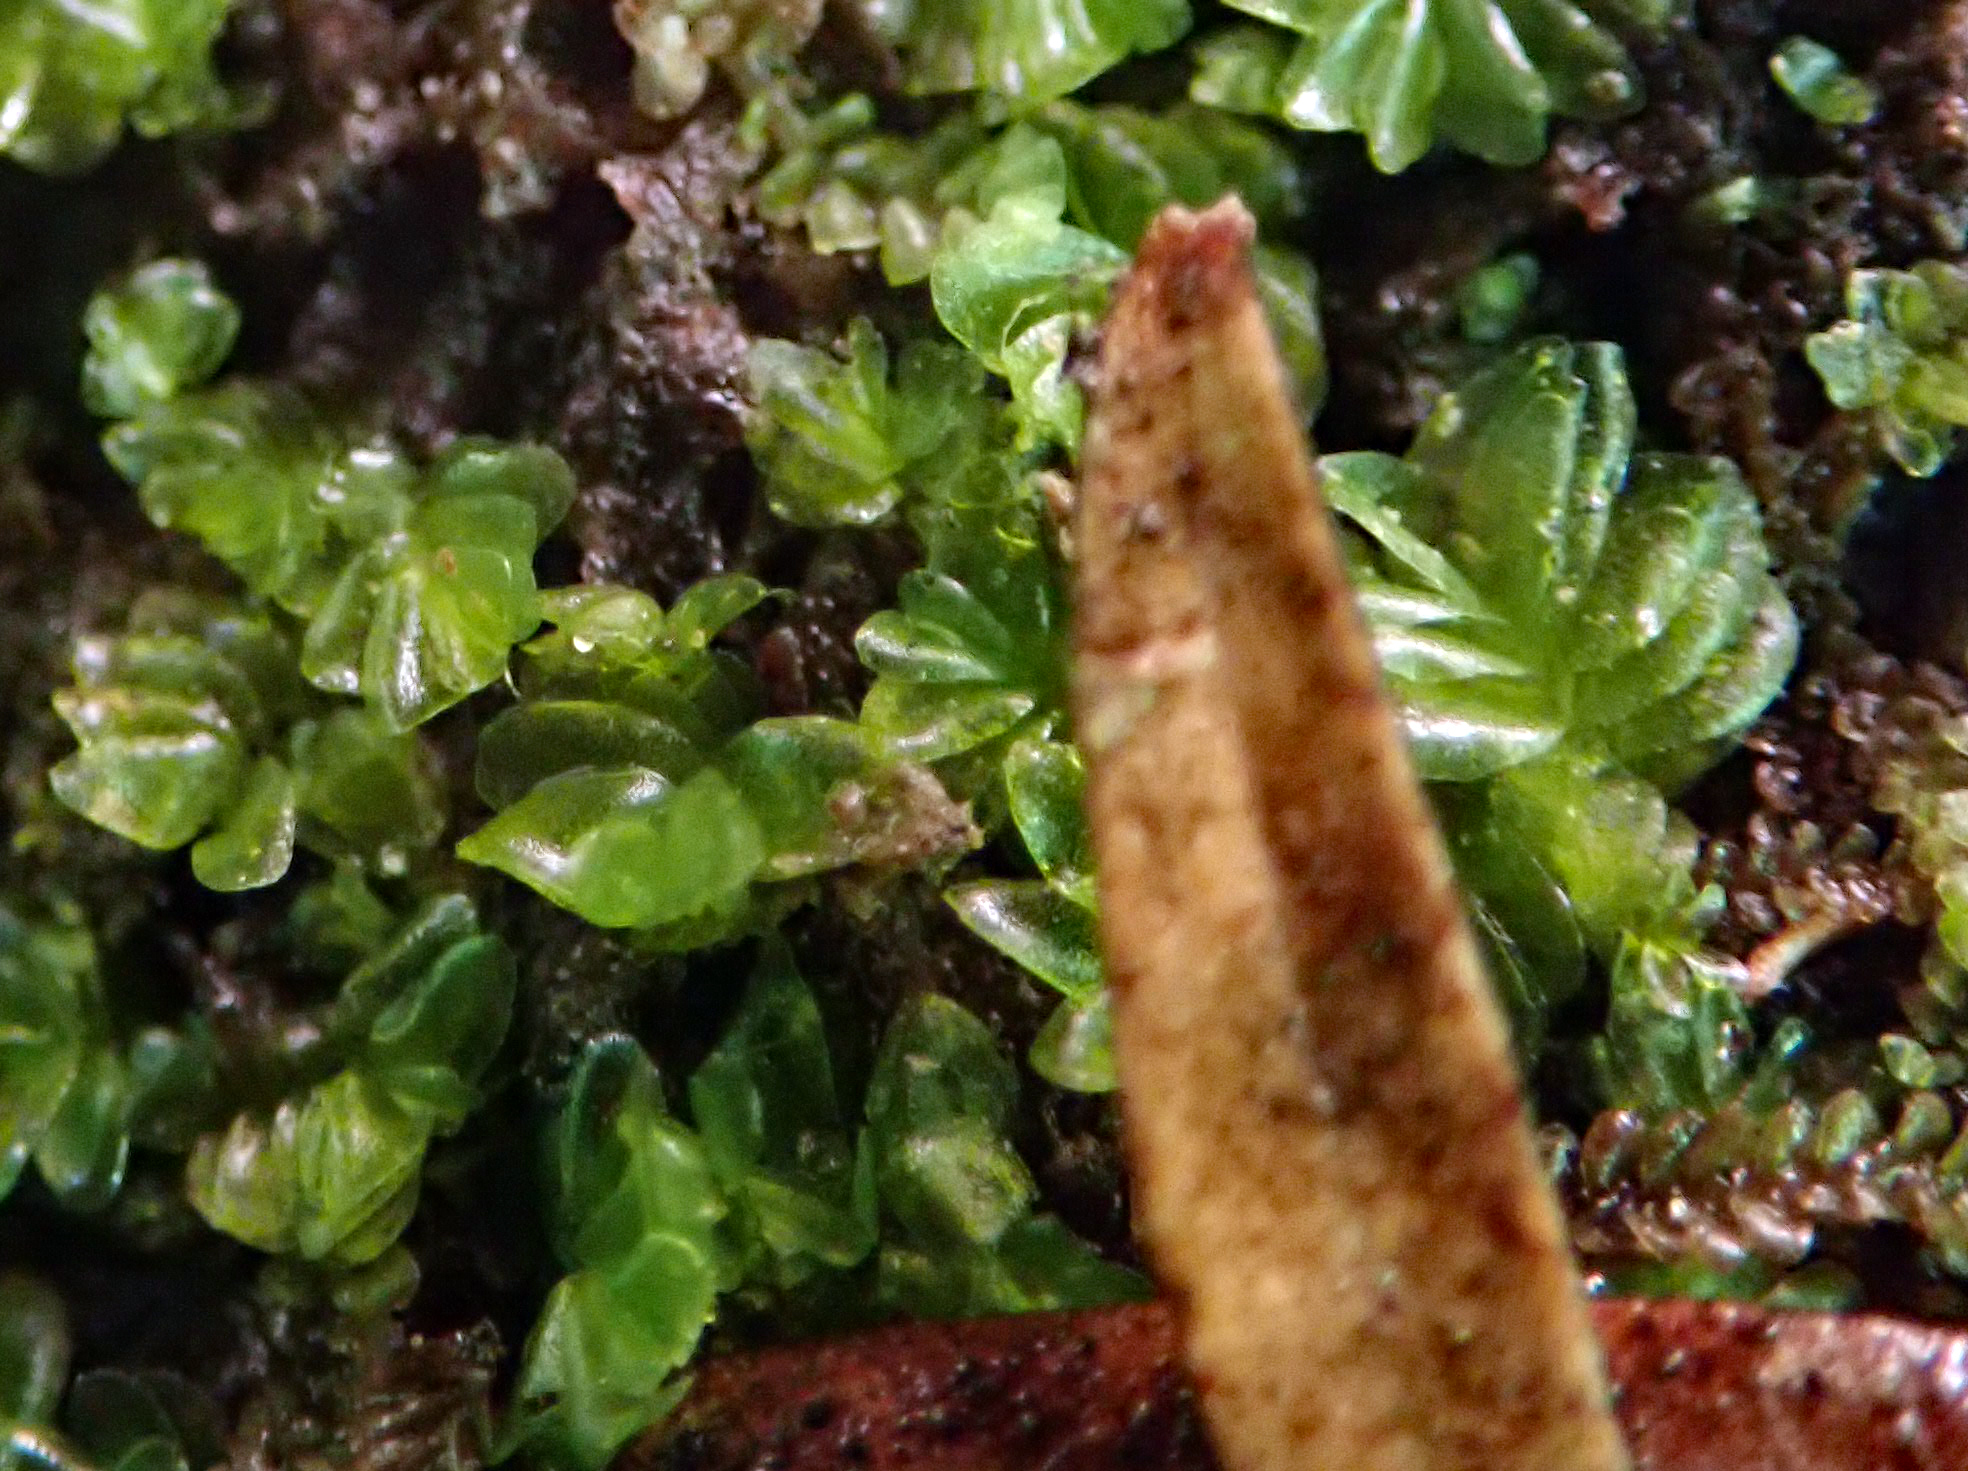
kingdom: Plantae
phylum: Marchantiophyta
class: Jungermanniopsida
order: Jungermanniales
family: Acrobolbaceae
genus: Lethocolea
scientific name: Lethocolea pansa
